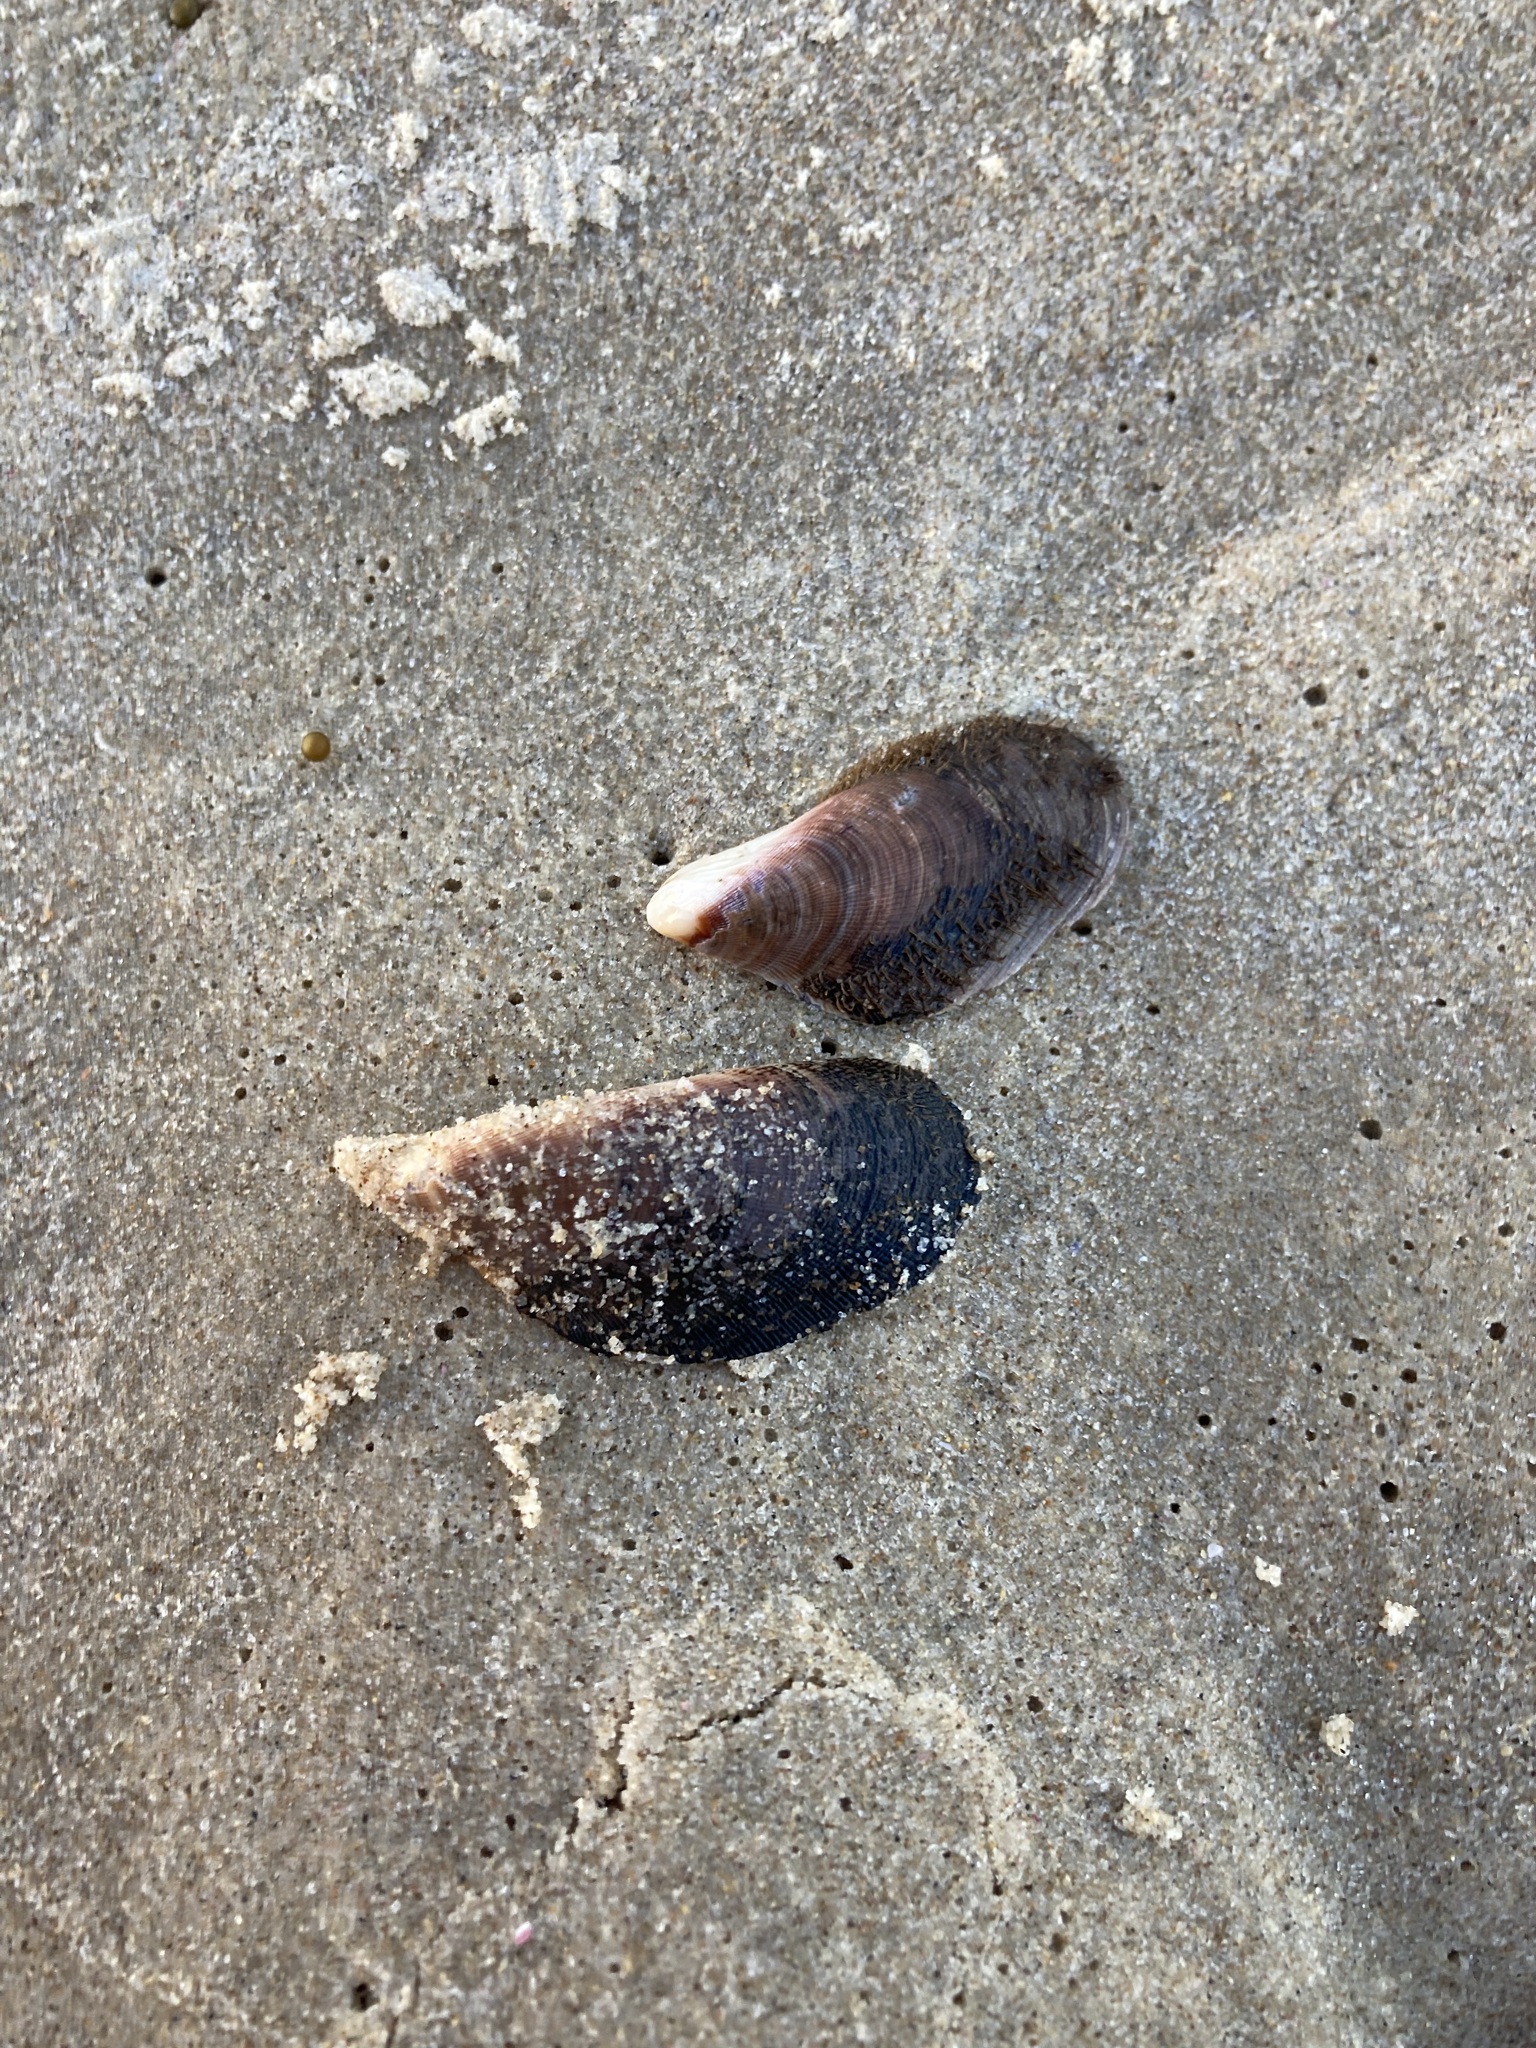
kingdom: Animalia
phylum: Mollusca
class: Bivalvia
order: Mytilida
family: Mytilidae
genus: Trichomya
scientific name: Trichomya hirsuta
